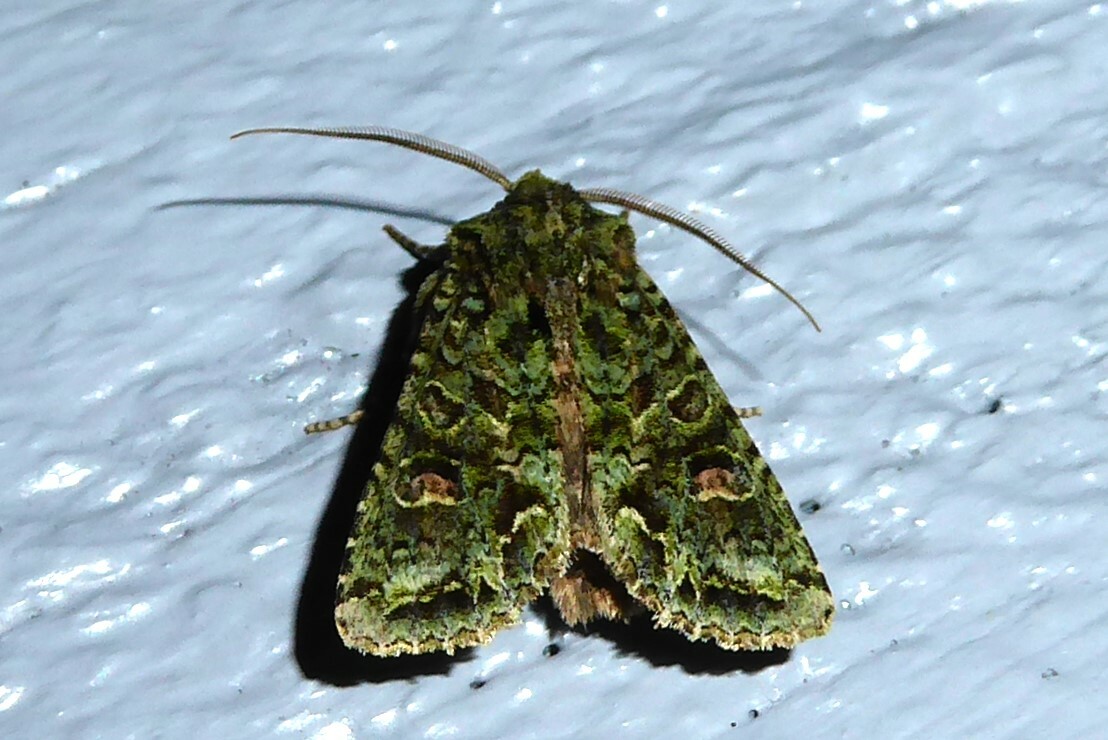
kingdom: Animalia
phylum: Arthropoda
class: Insecta
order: Lepidoptera
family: Noctuidae
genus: Ichneutica
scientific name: Ichneutica
